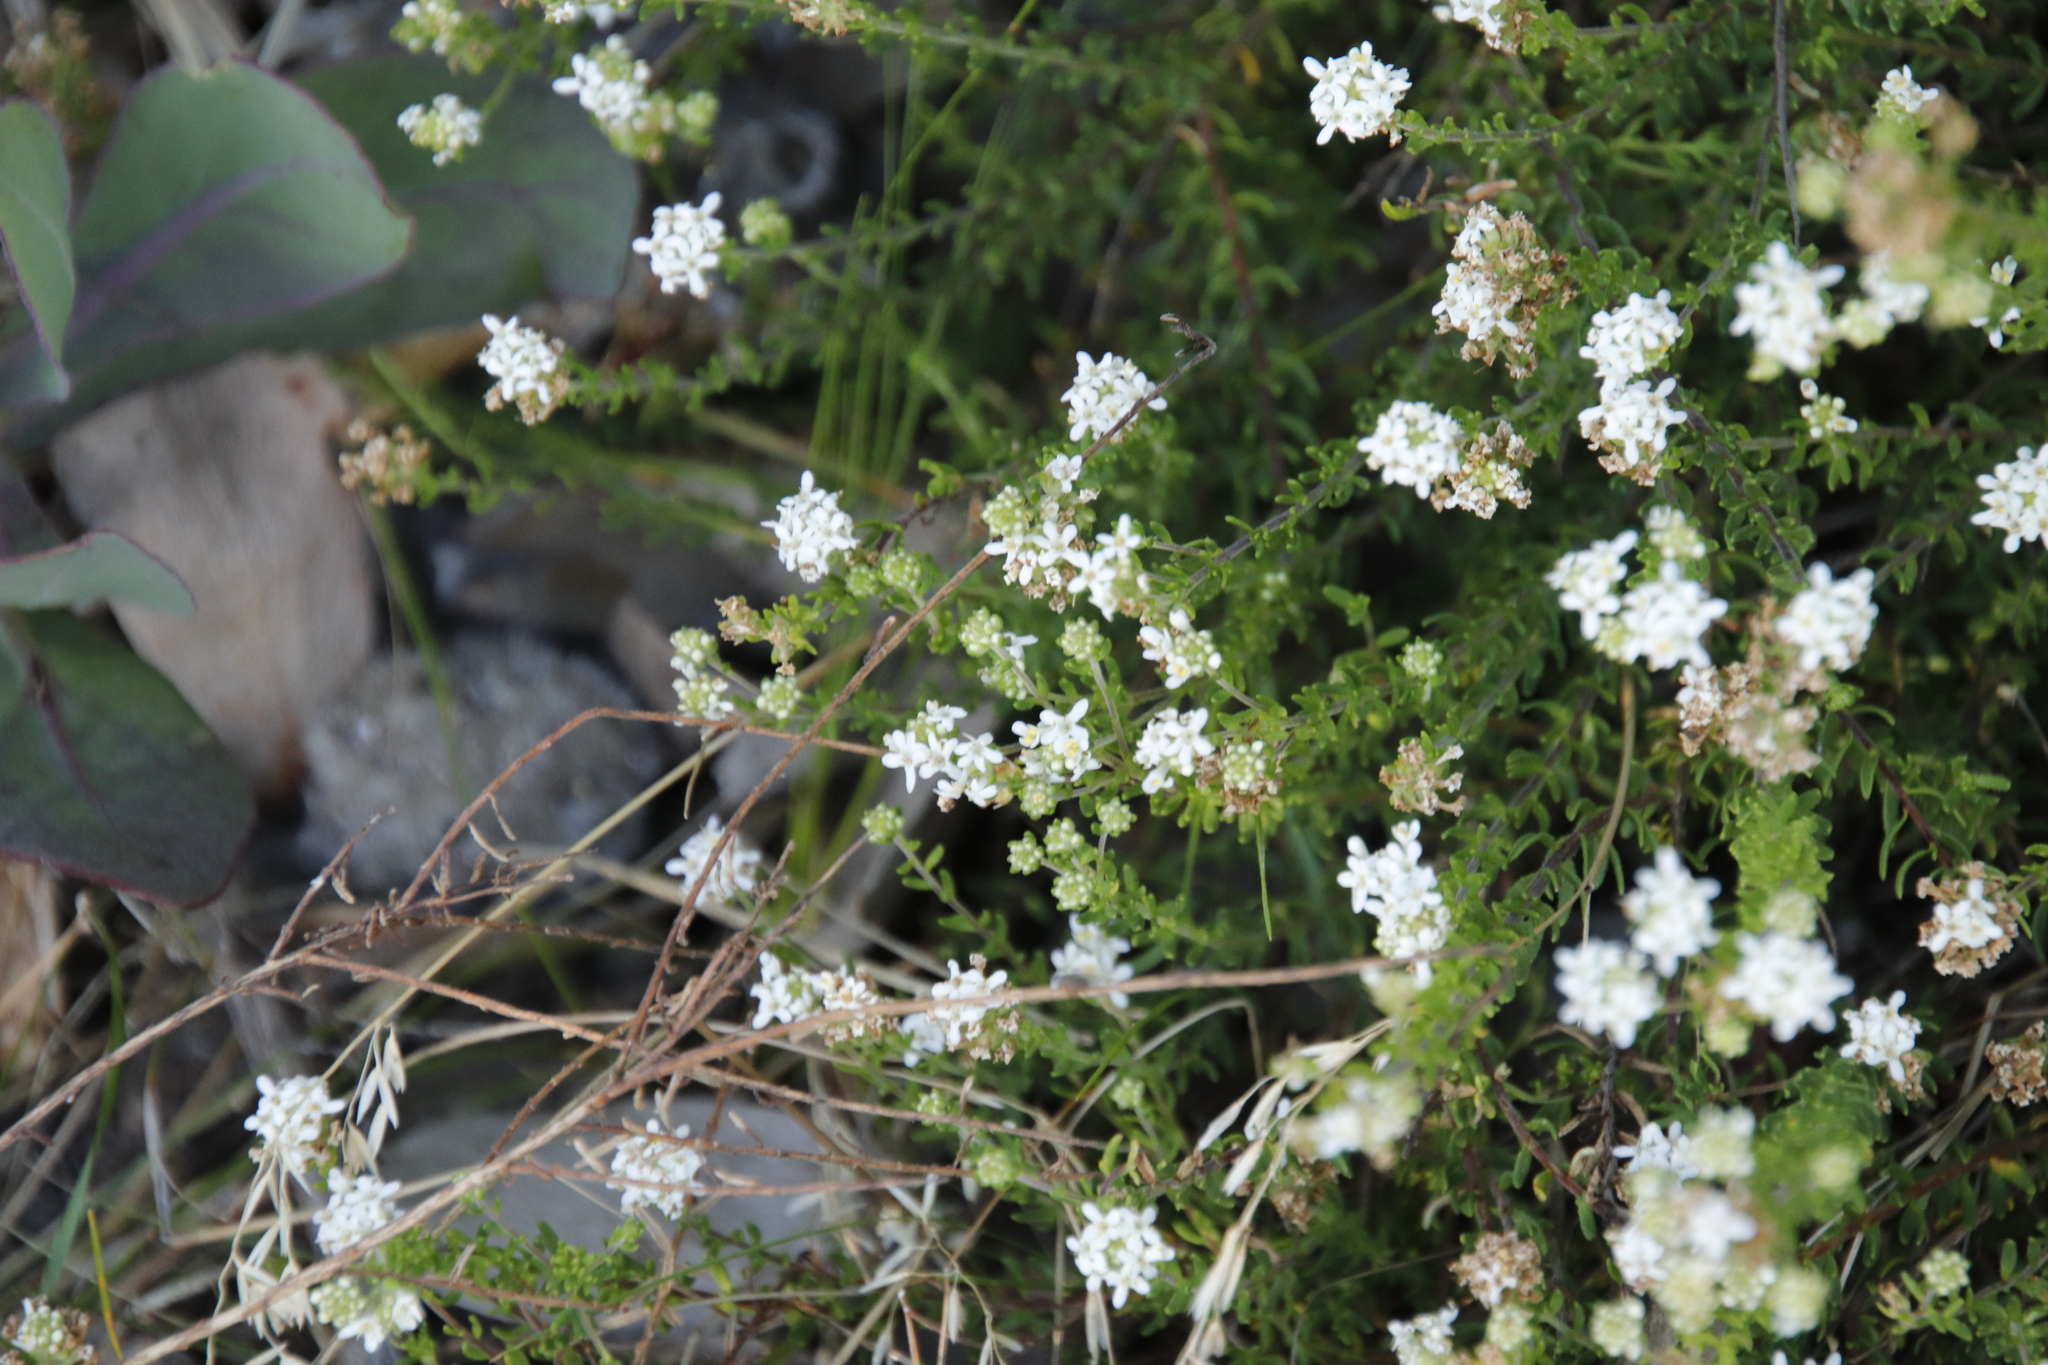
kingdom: Plantae
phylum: Tracheophyta
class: Magnoliopsida
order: Lamiales
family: Scrophulariaceae
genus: Selago
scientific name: Selago levynsiae
